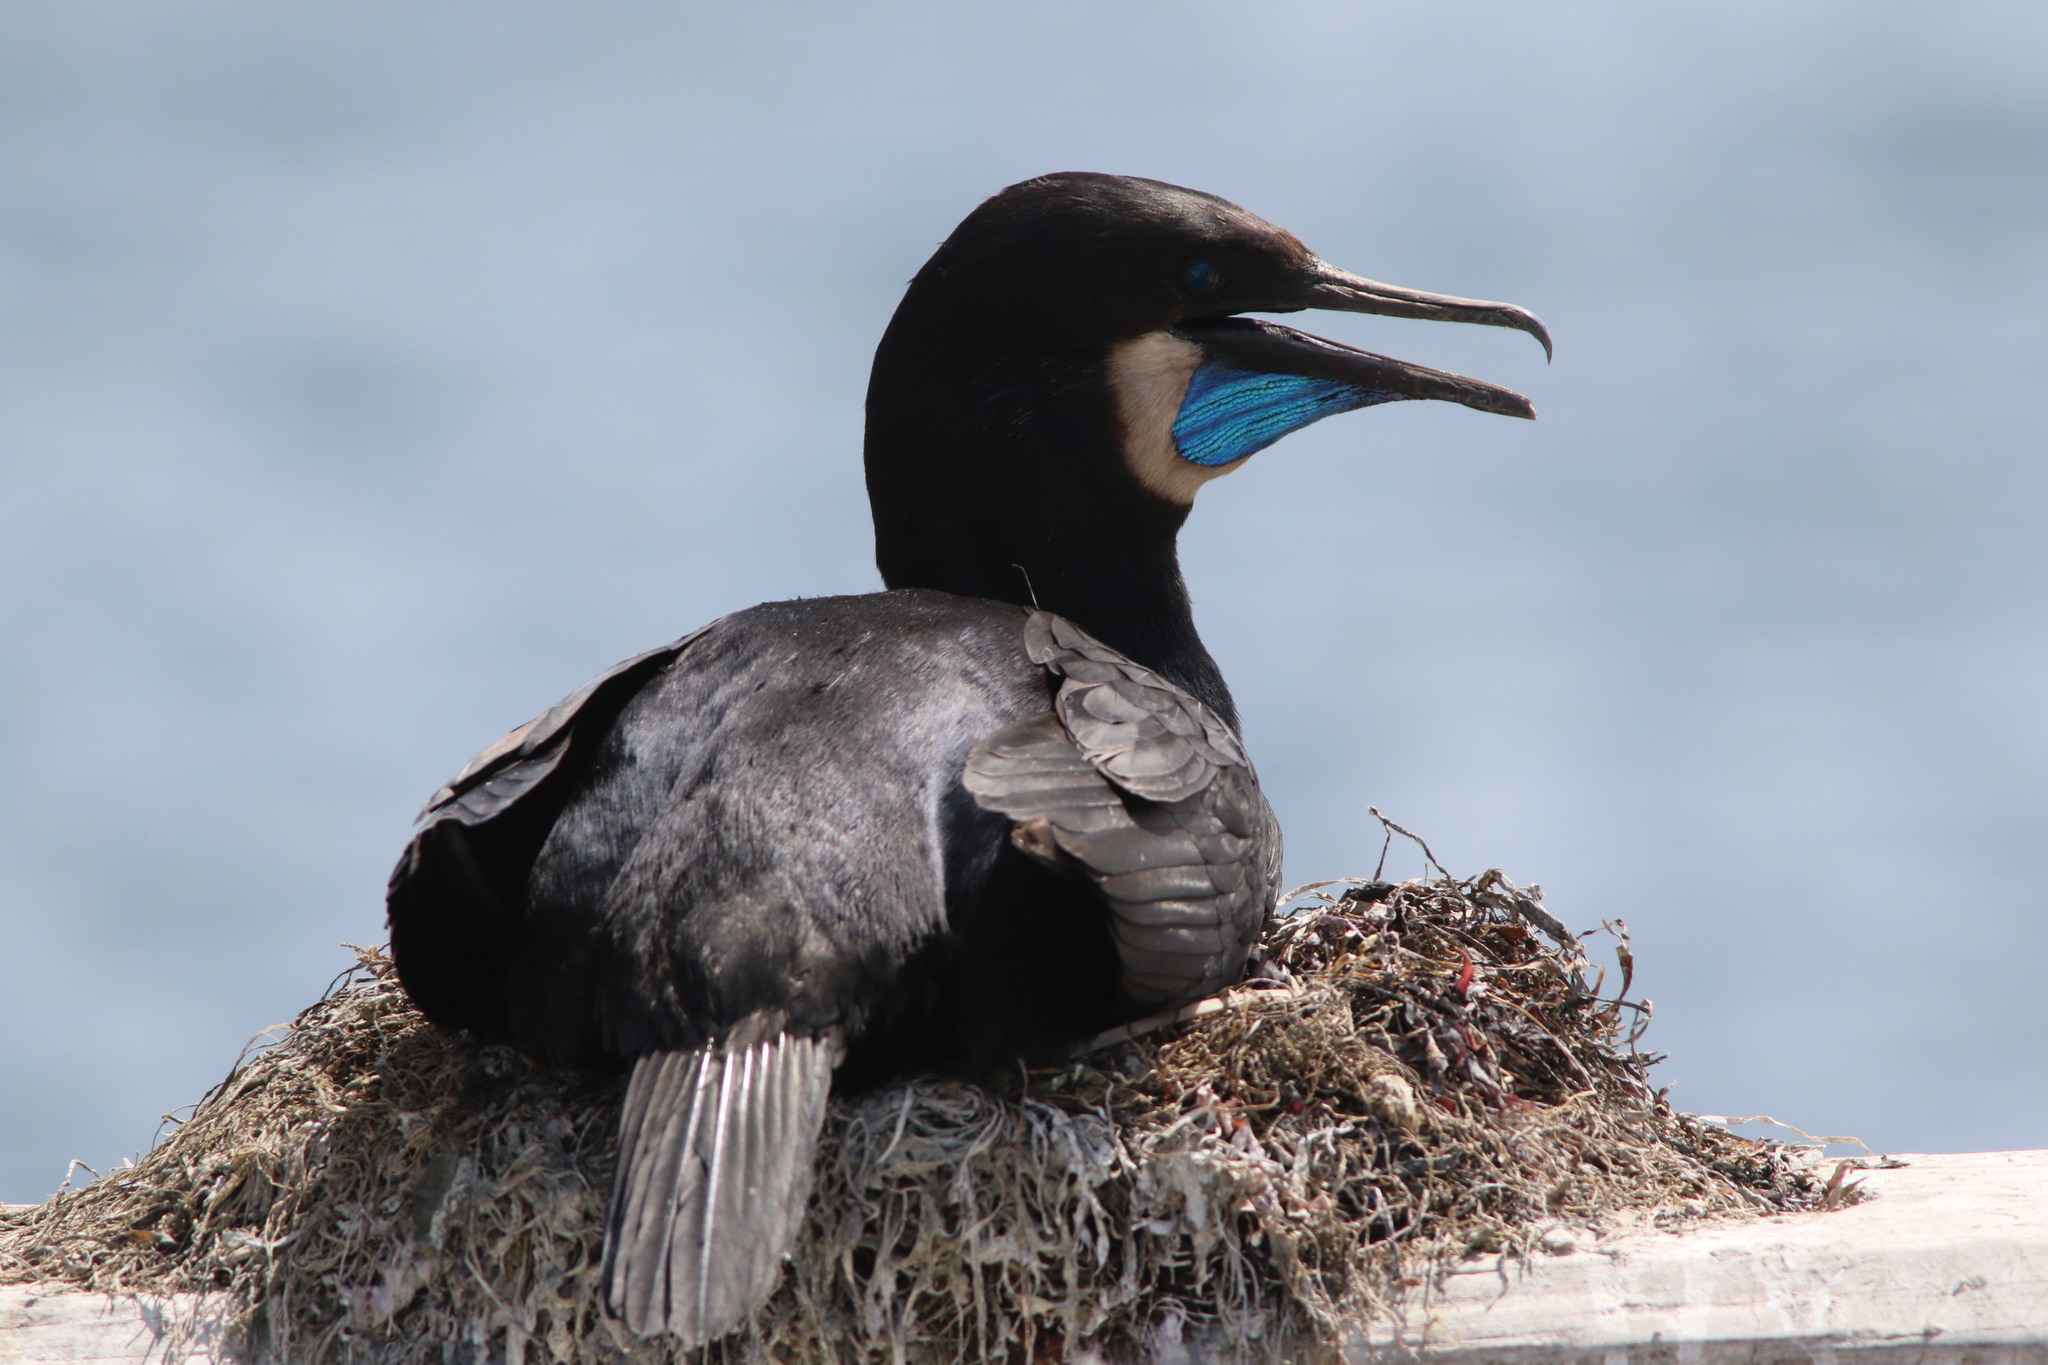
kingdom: Animalia
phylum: Chordata
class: Aves
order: Suliformes
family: Phalacrocoracidae
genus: Urile
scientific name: Urile penicillatus
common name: Brandt's cormorant
